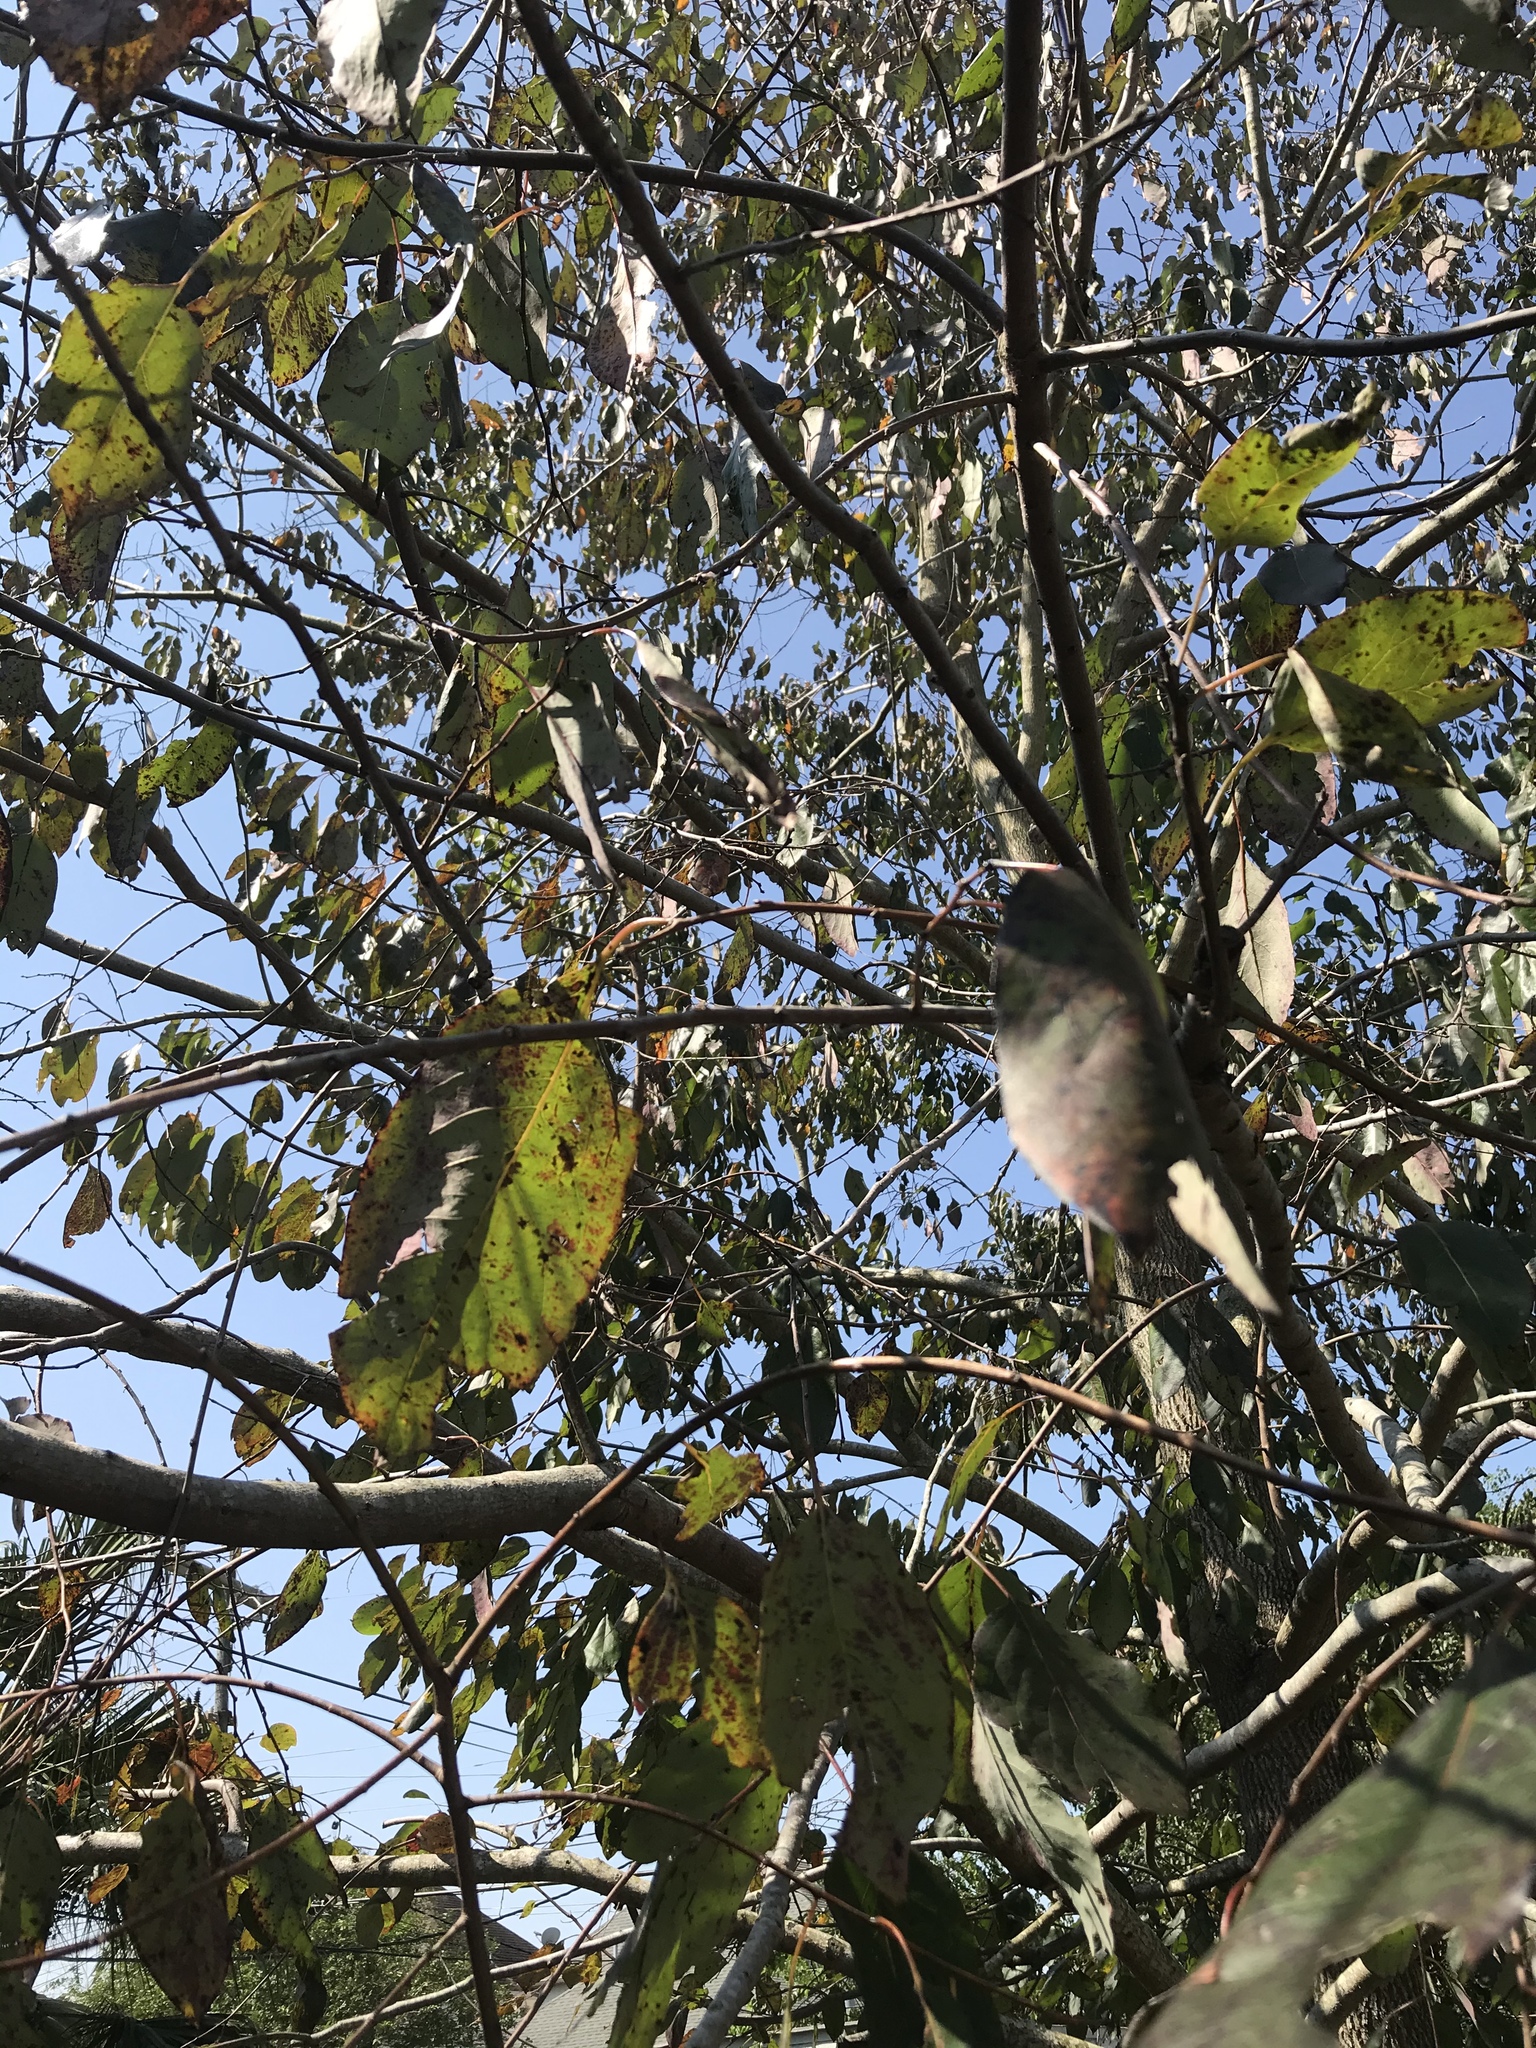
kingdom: Plantae
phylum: Tracheophyta
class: Magnoliopsida
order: Ericales
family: Ebenaceae
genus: Diospyros
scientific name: Diospyros virginiana
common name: Persimmon
